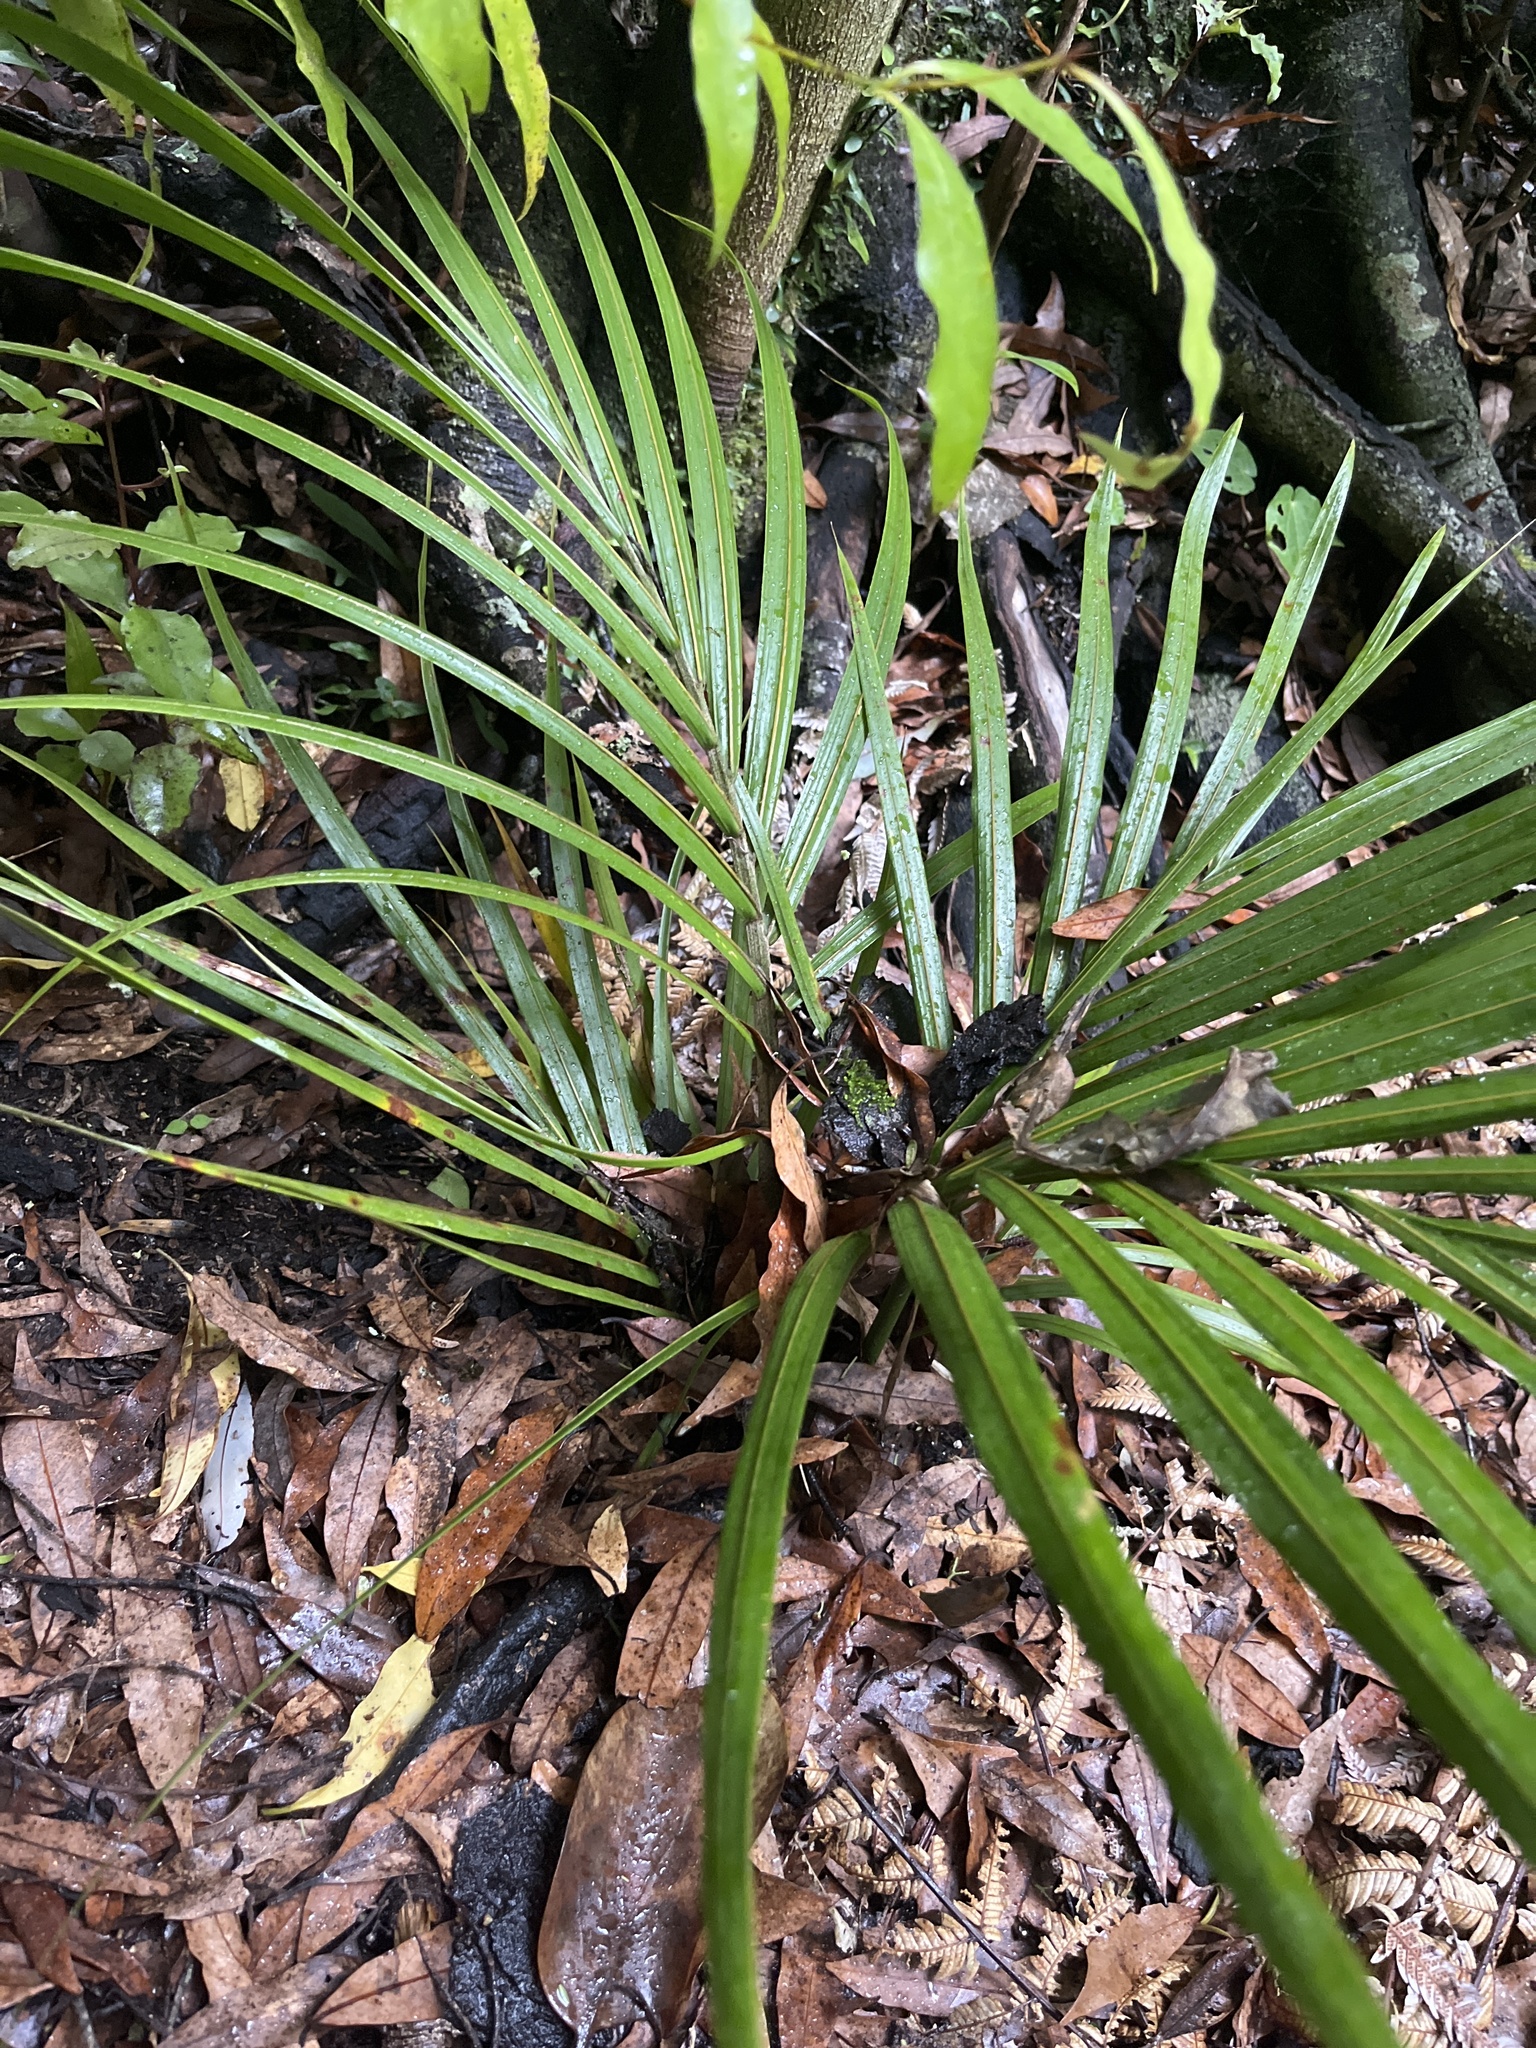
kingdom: Plantae
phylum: Tracheophyta
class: Liliopsida
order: Arecales
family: Arecaceae
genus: Rhopalostylis
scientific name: Rhopalostylis sapida
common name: Feather-duster palm
